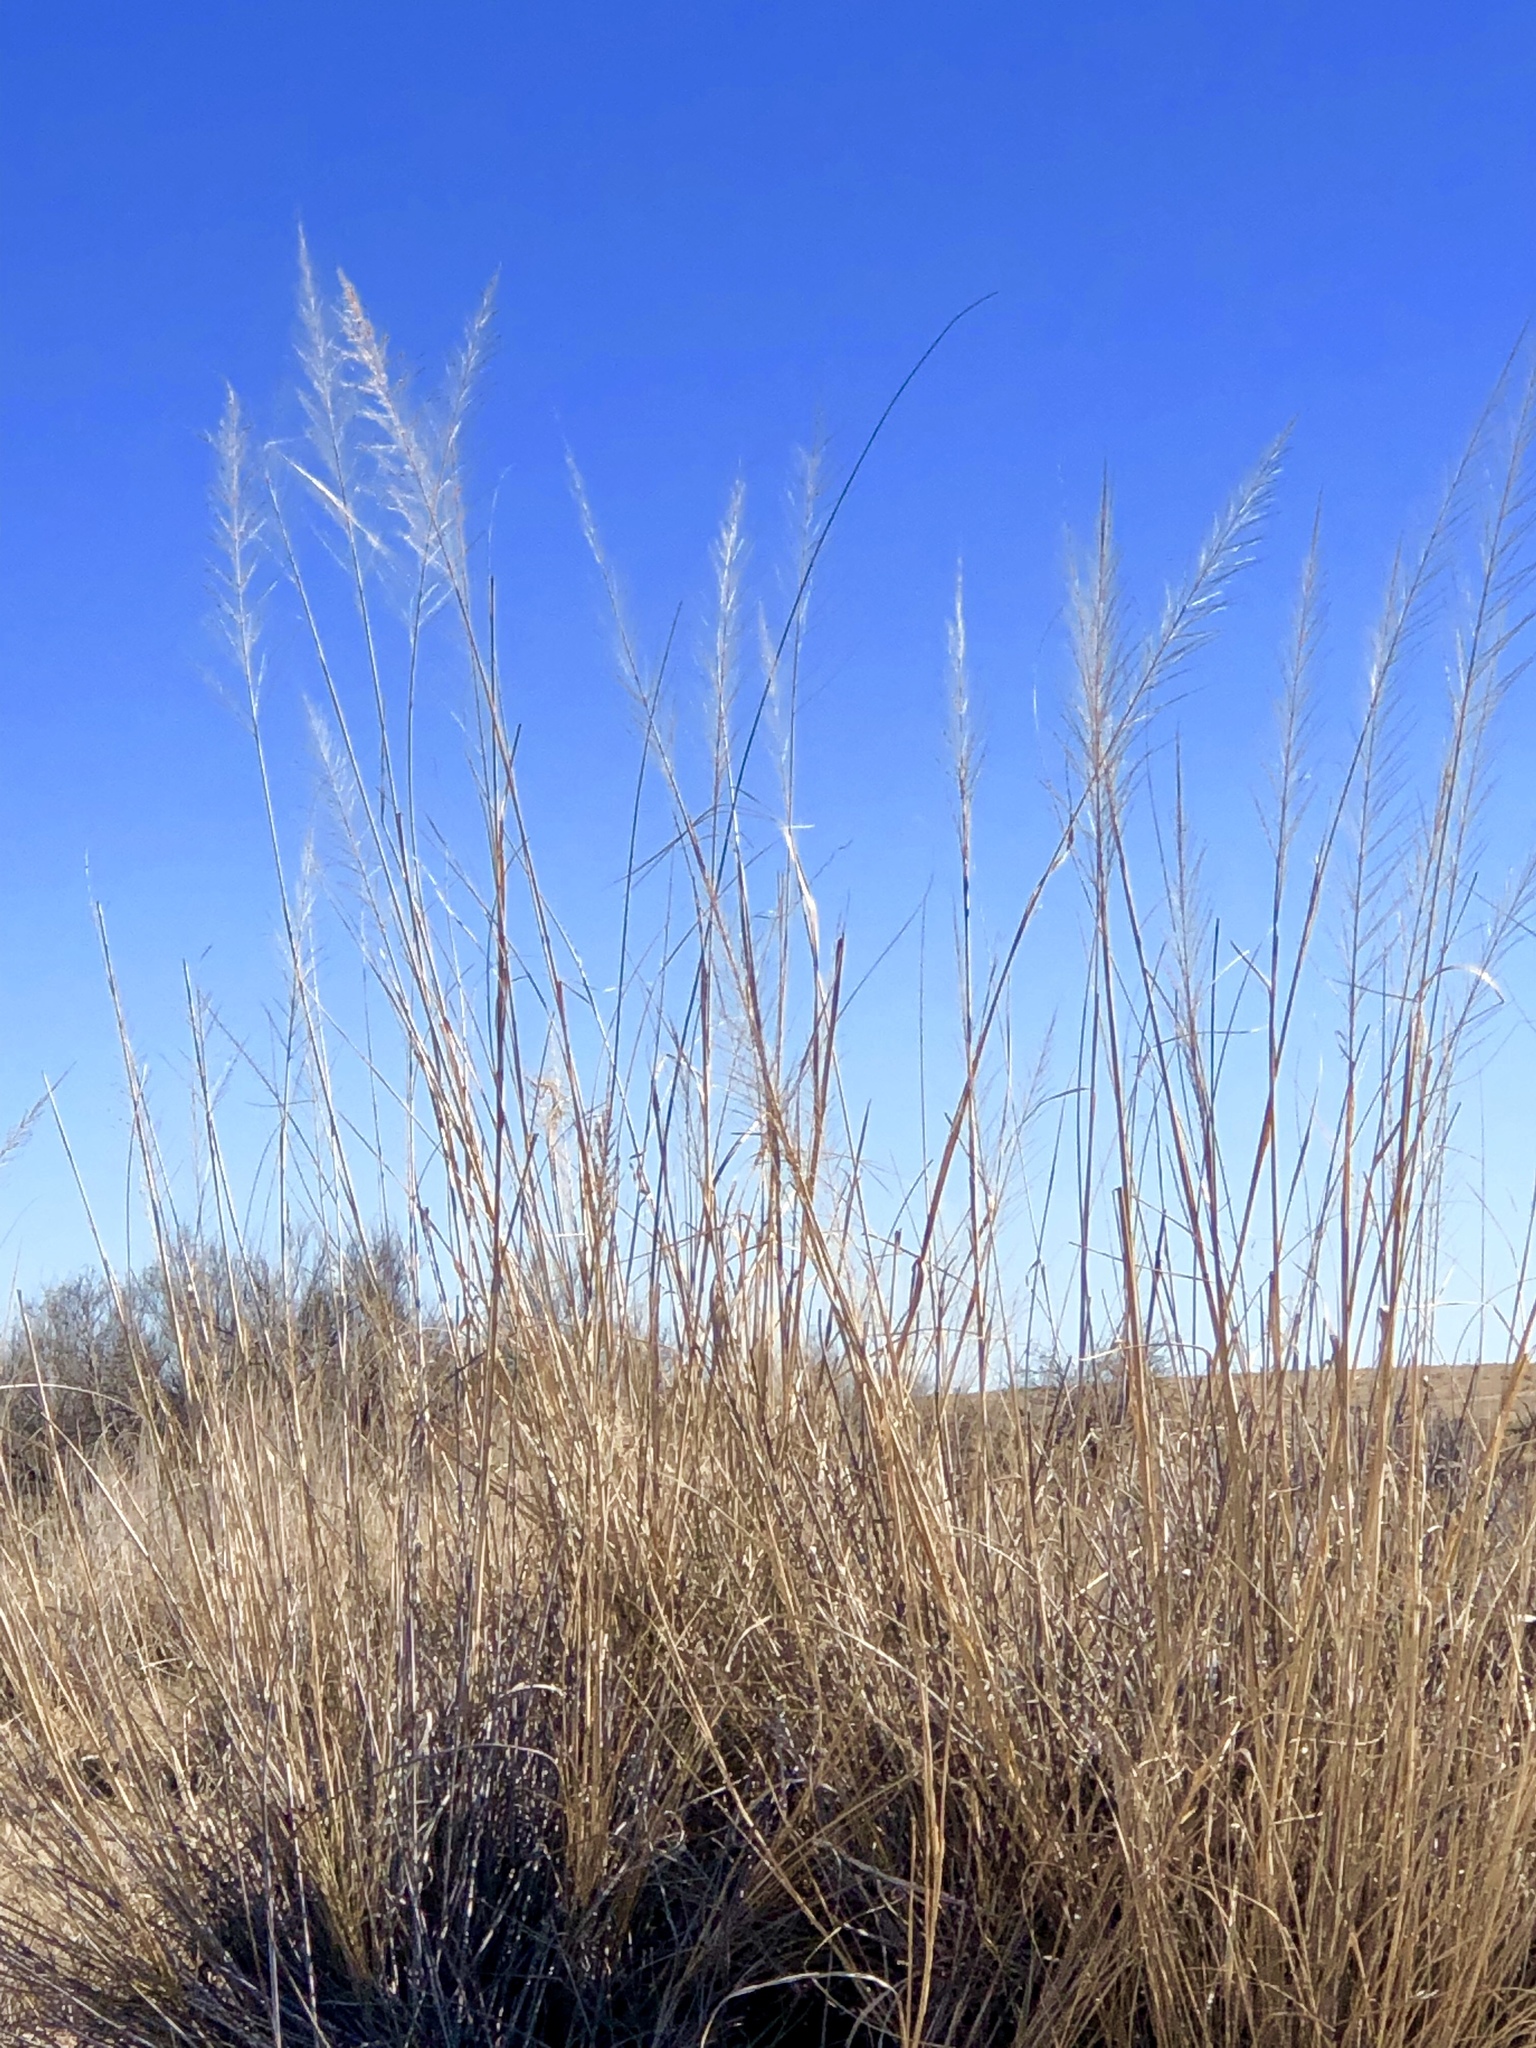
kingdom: Plantae
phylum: Tracheophyta
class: Liliopsida
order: Poales
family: Poaceae
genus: Sporobolus
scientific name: Sporobolus wrightii
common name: Big alkali sacaton
